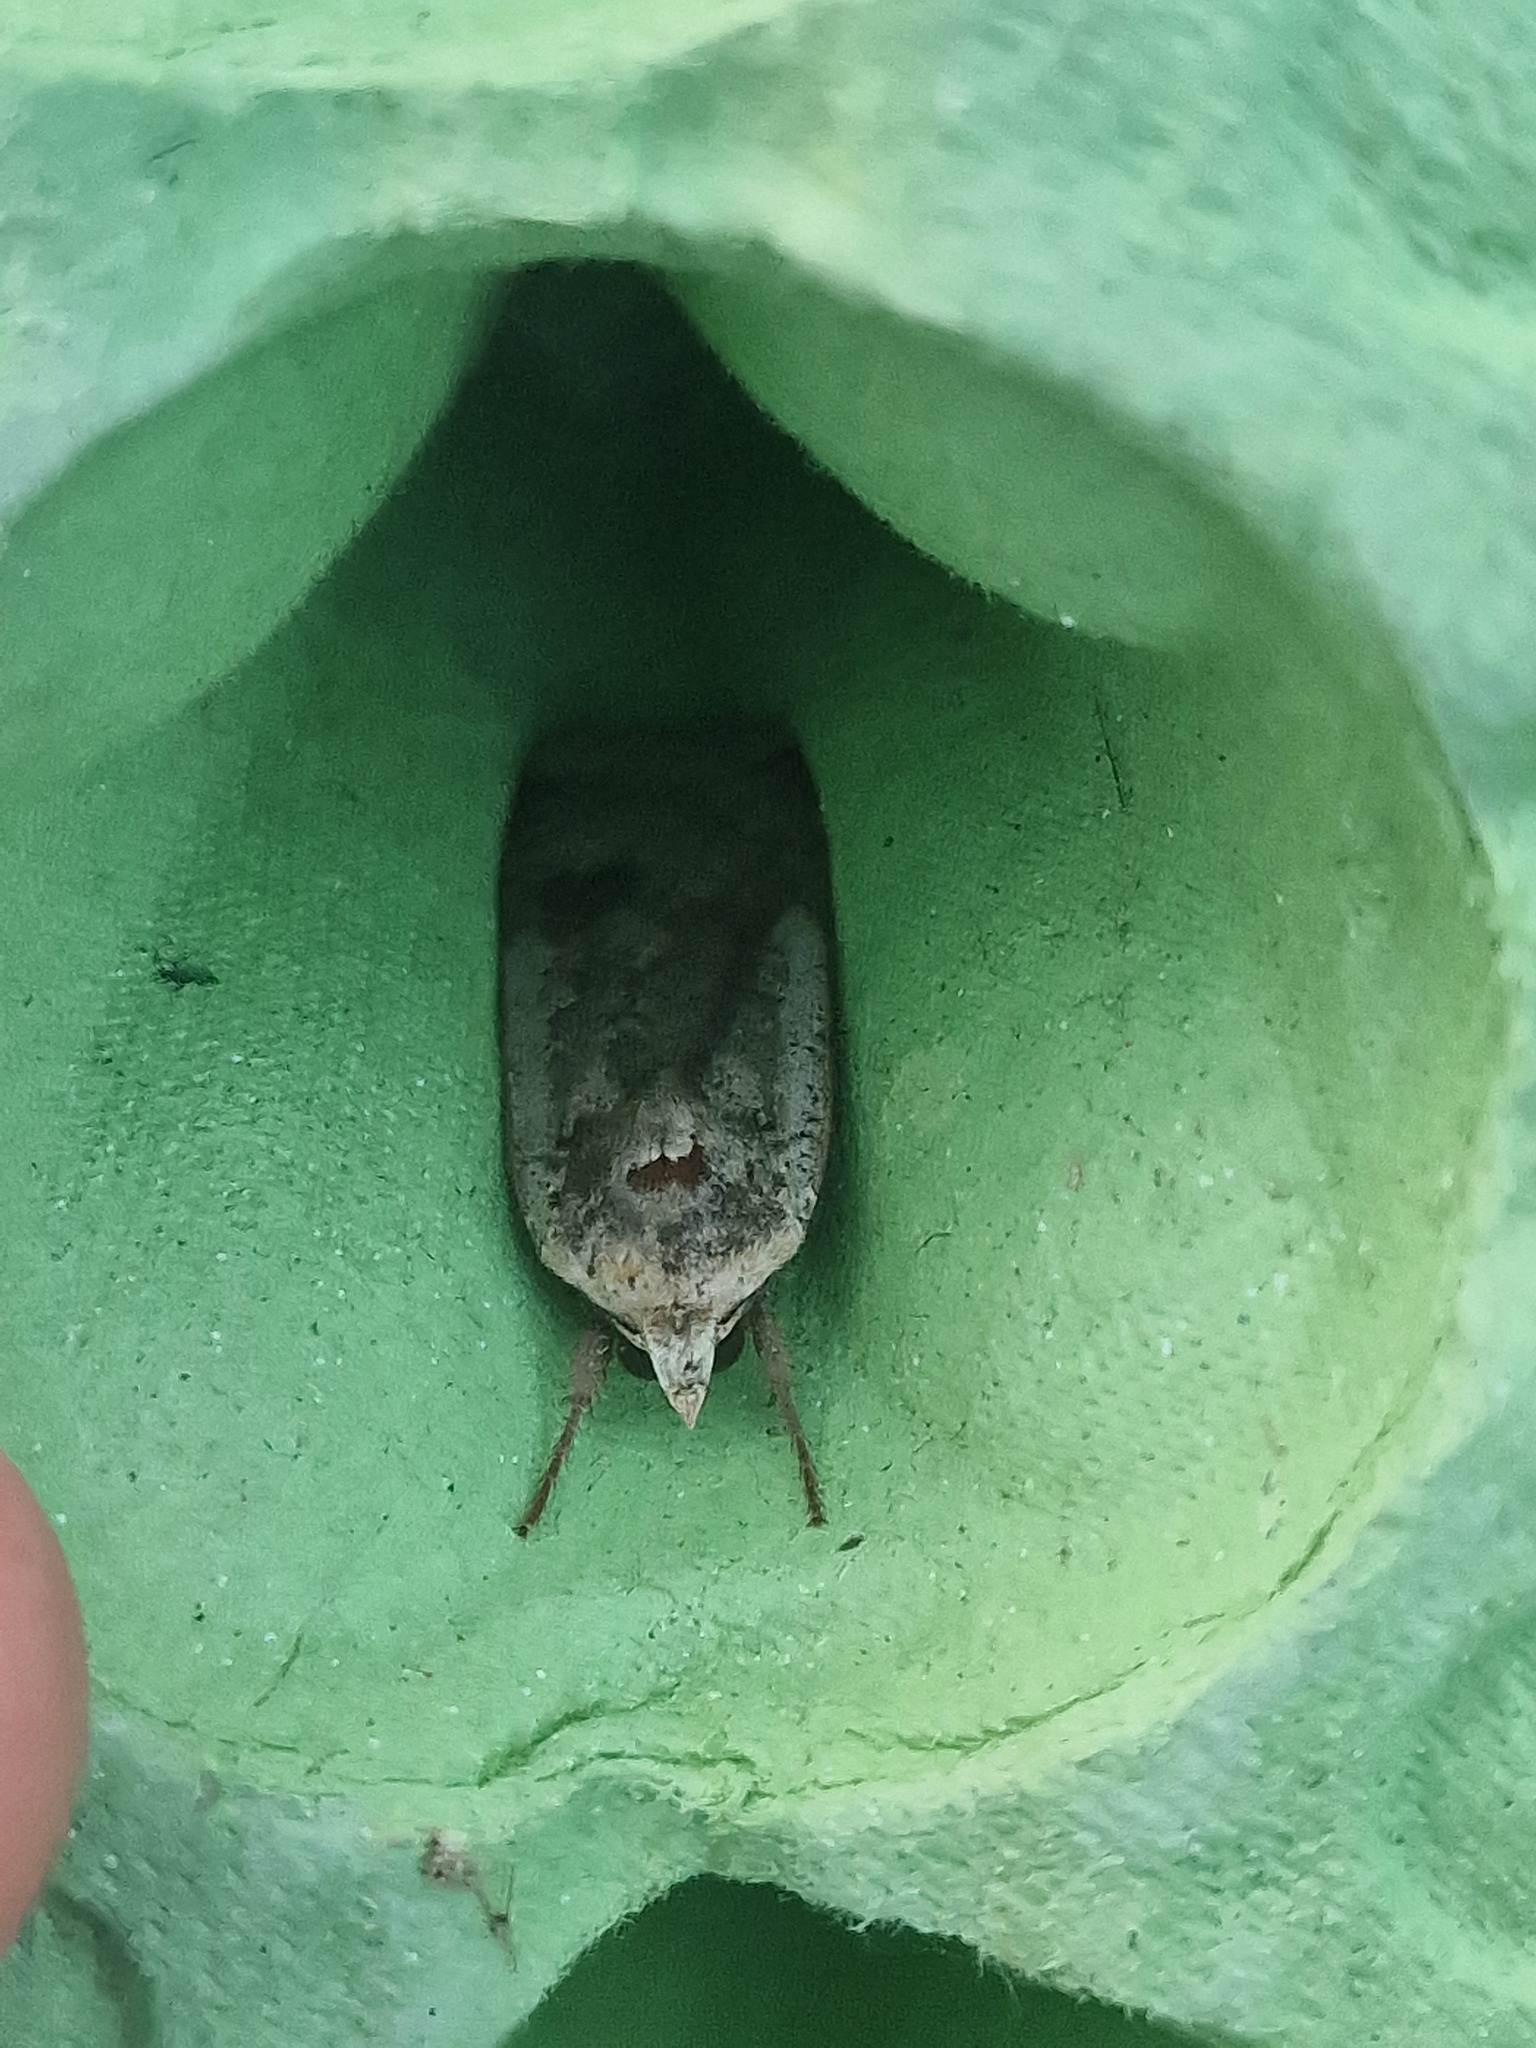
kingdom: Animalia
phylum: Arthropoda
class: Insecta
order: Lepidoptera
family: Noctuidae
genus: Noctua
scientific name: Noctua pronuba
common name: Large yellow underwing
